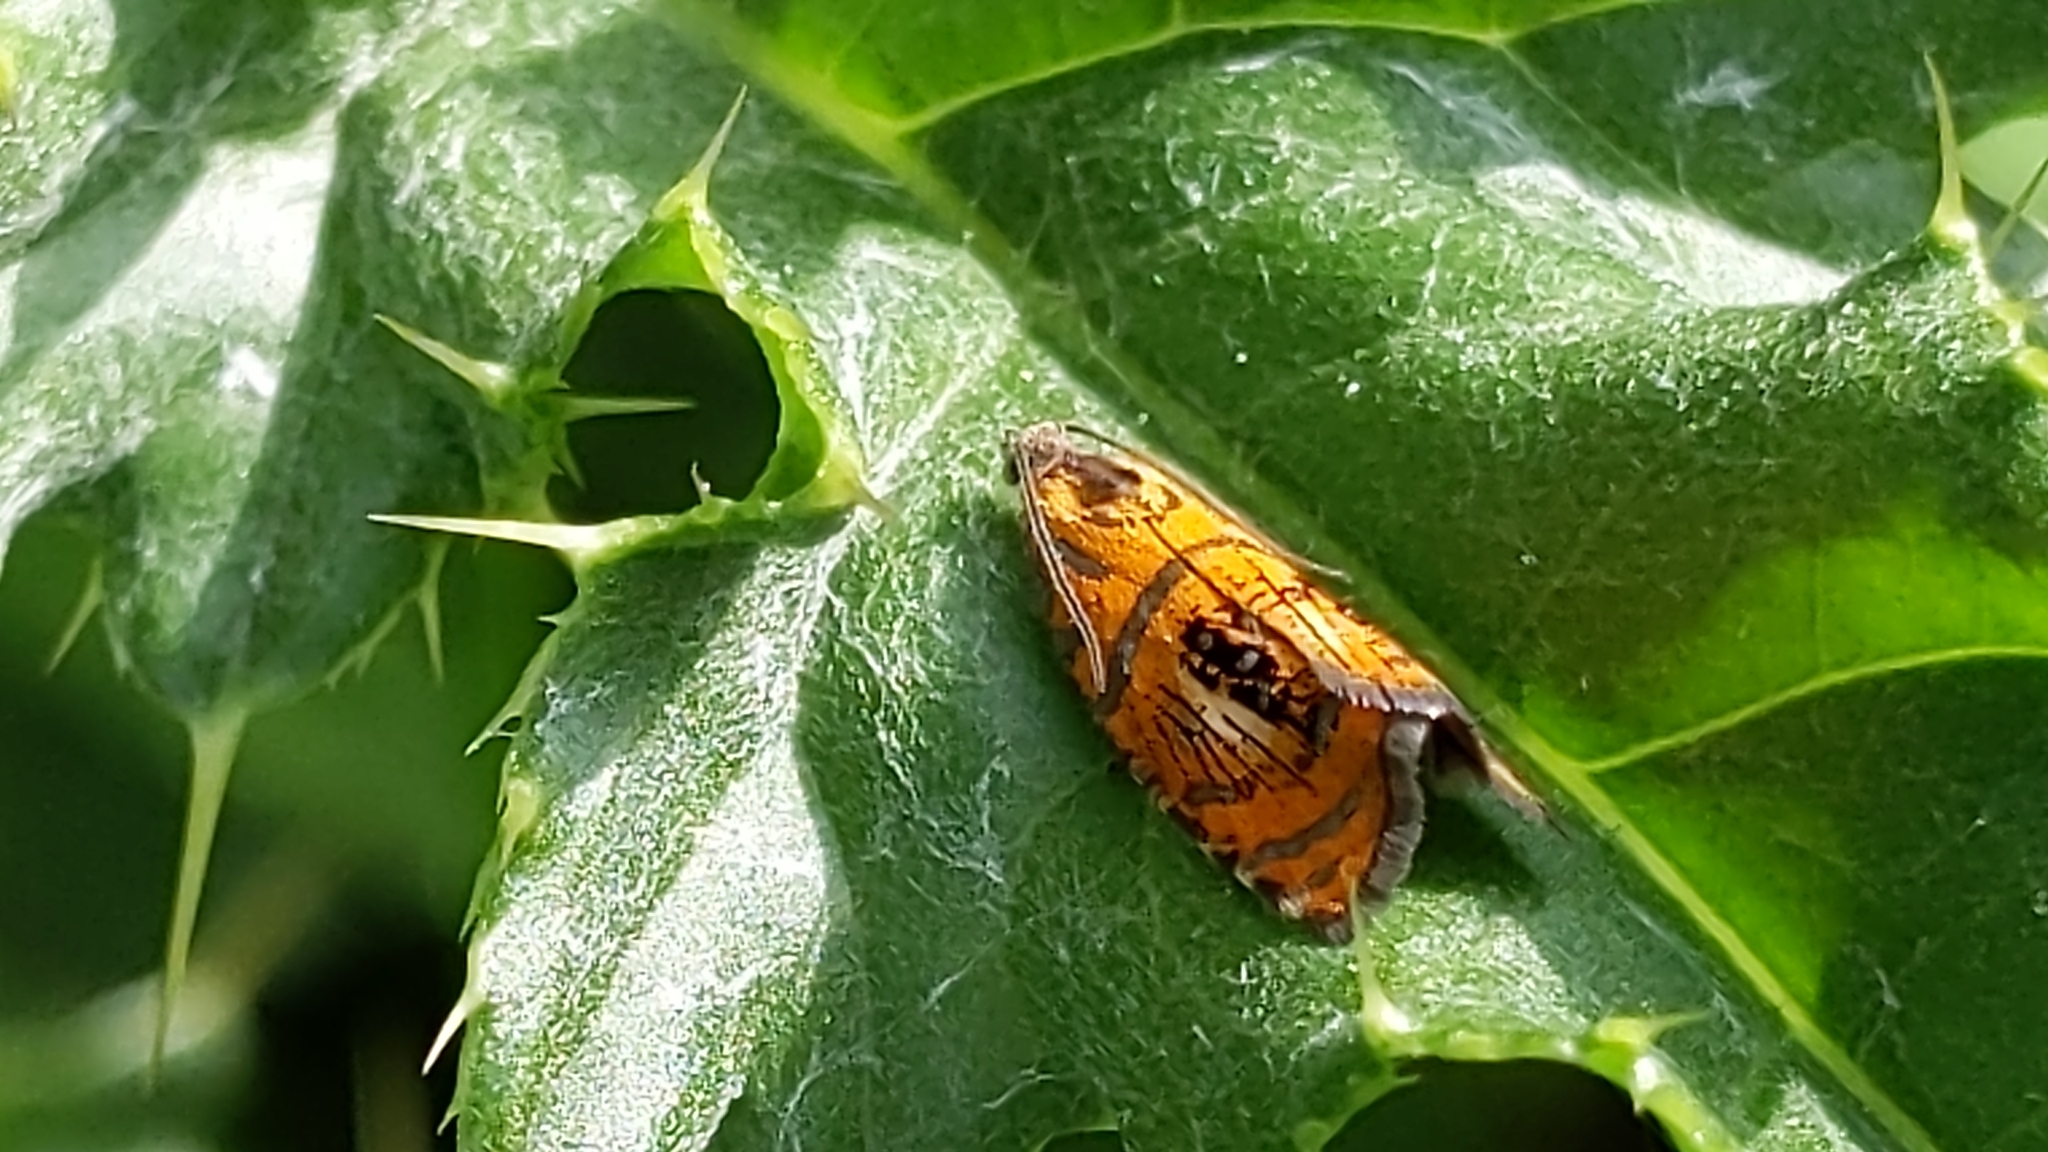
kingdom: Animalia
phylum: Arthropoda
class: Insecta
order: Lepidoptera
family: Tortricidae
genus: Olethreutes
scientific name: Olethreutes arcuella
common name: Arched marble
